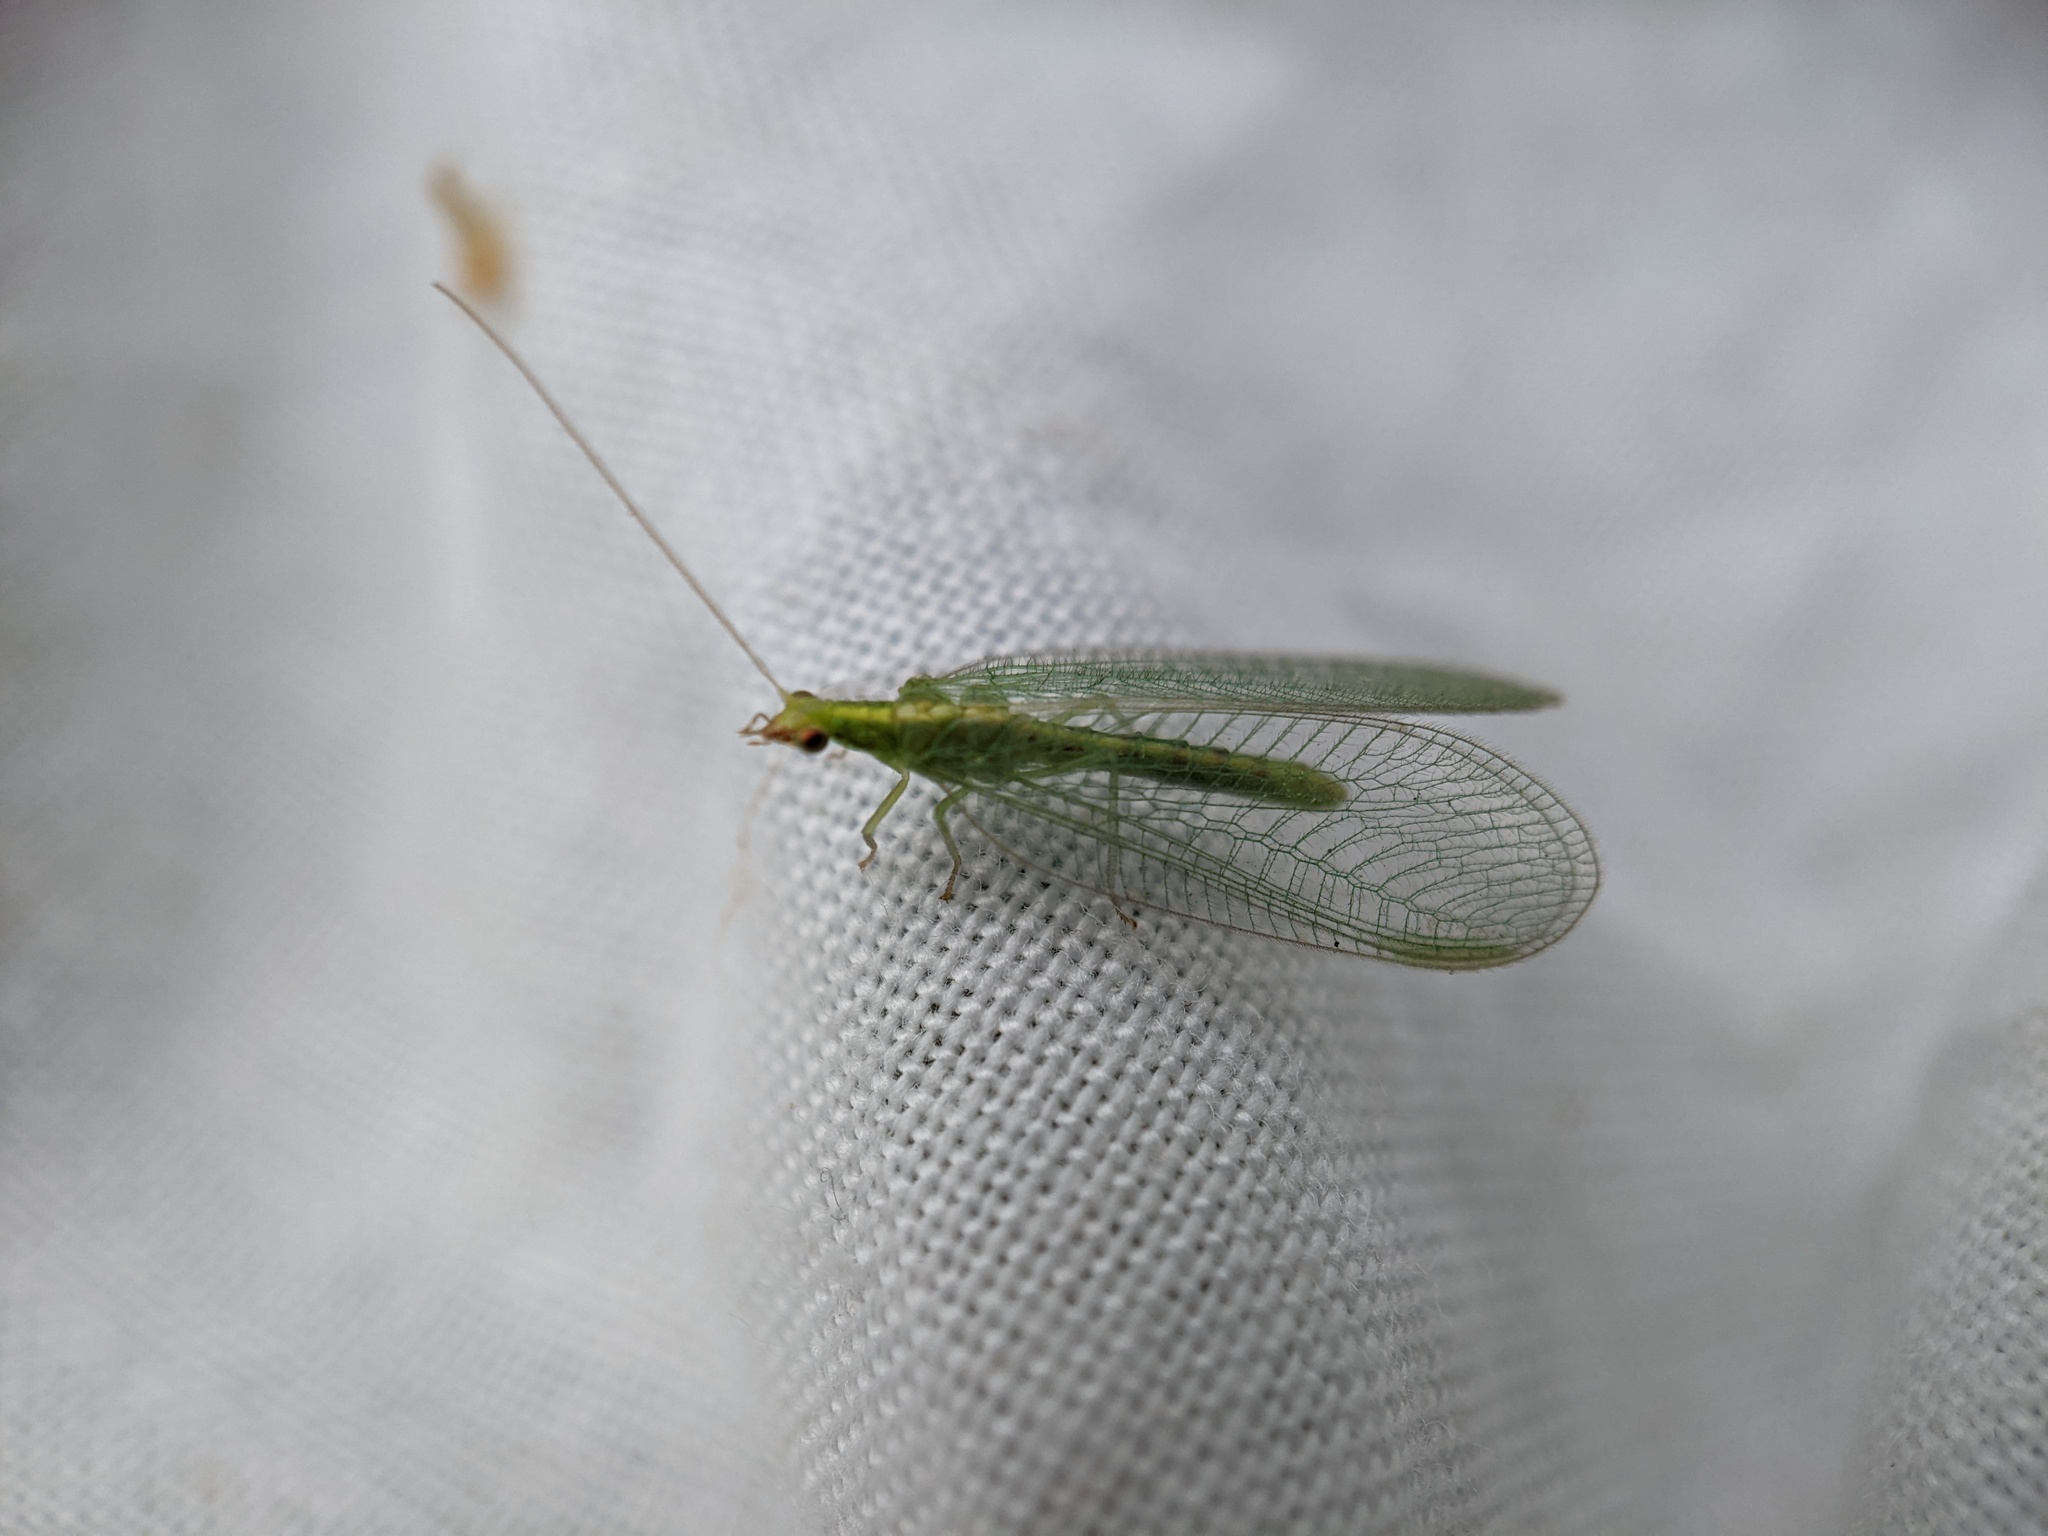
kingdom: Animalia
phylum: Arthropoda
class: Insecta
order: Neuroptera
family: Chrysopidae
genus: Chrysoperla
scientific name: Chrysoperla
